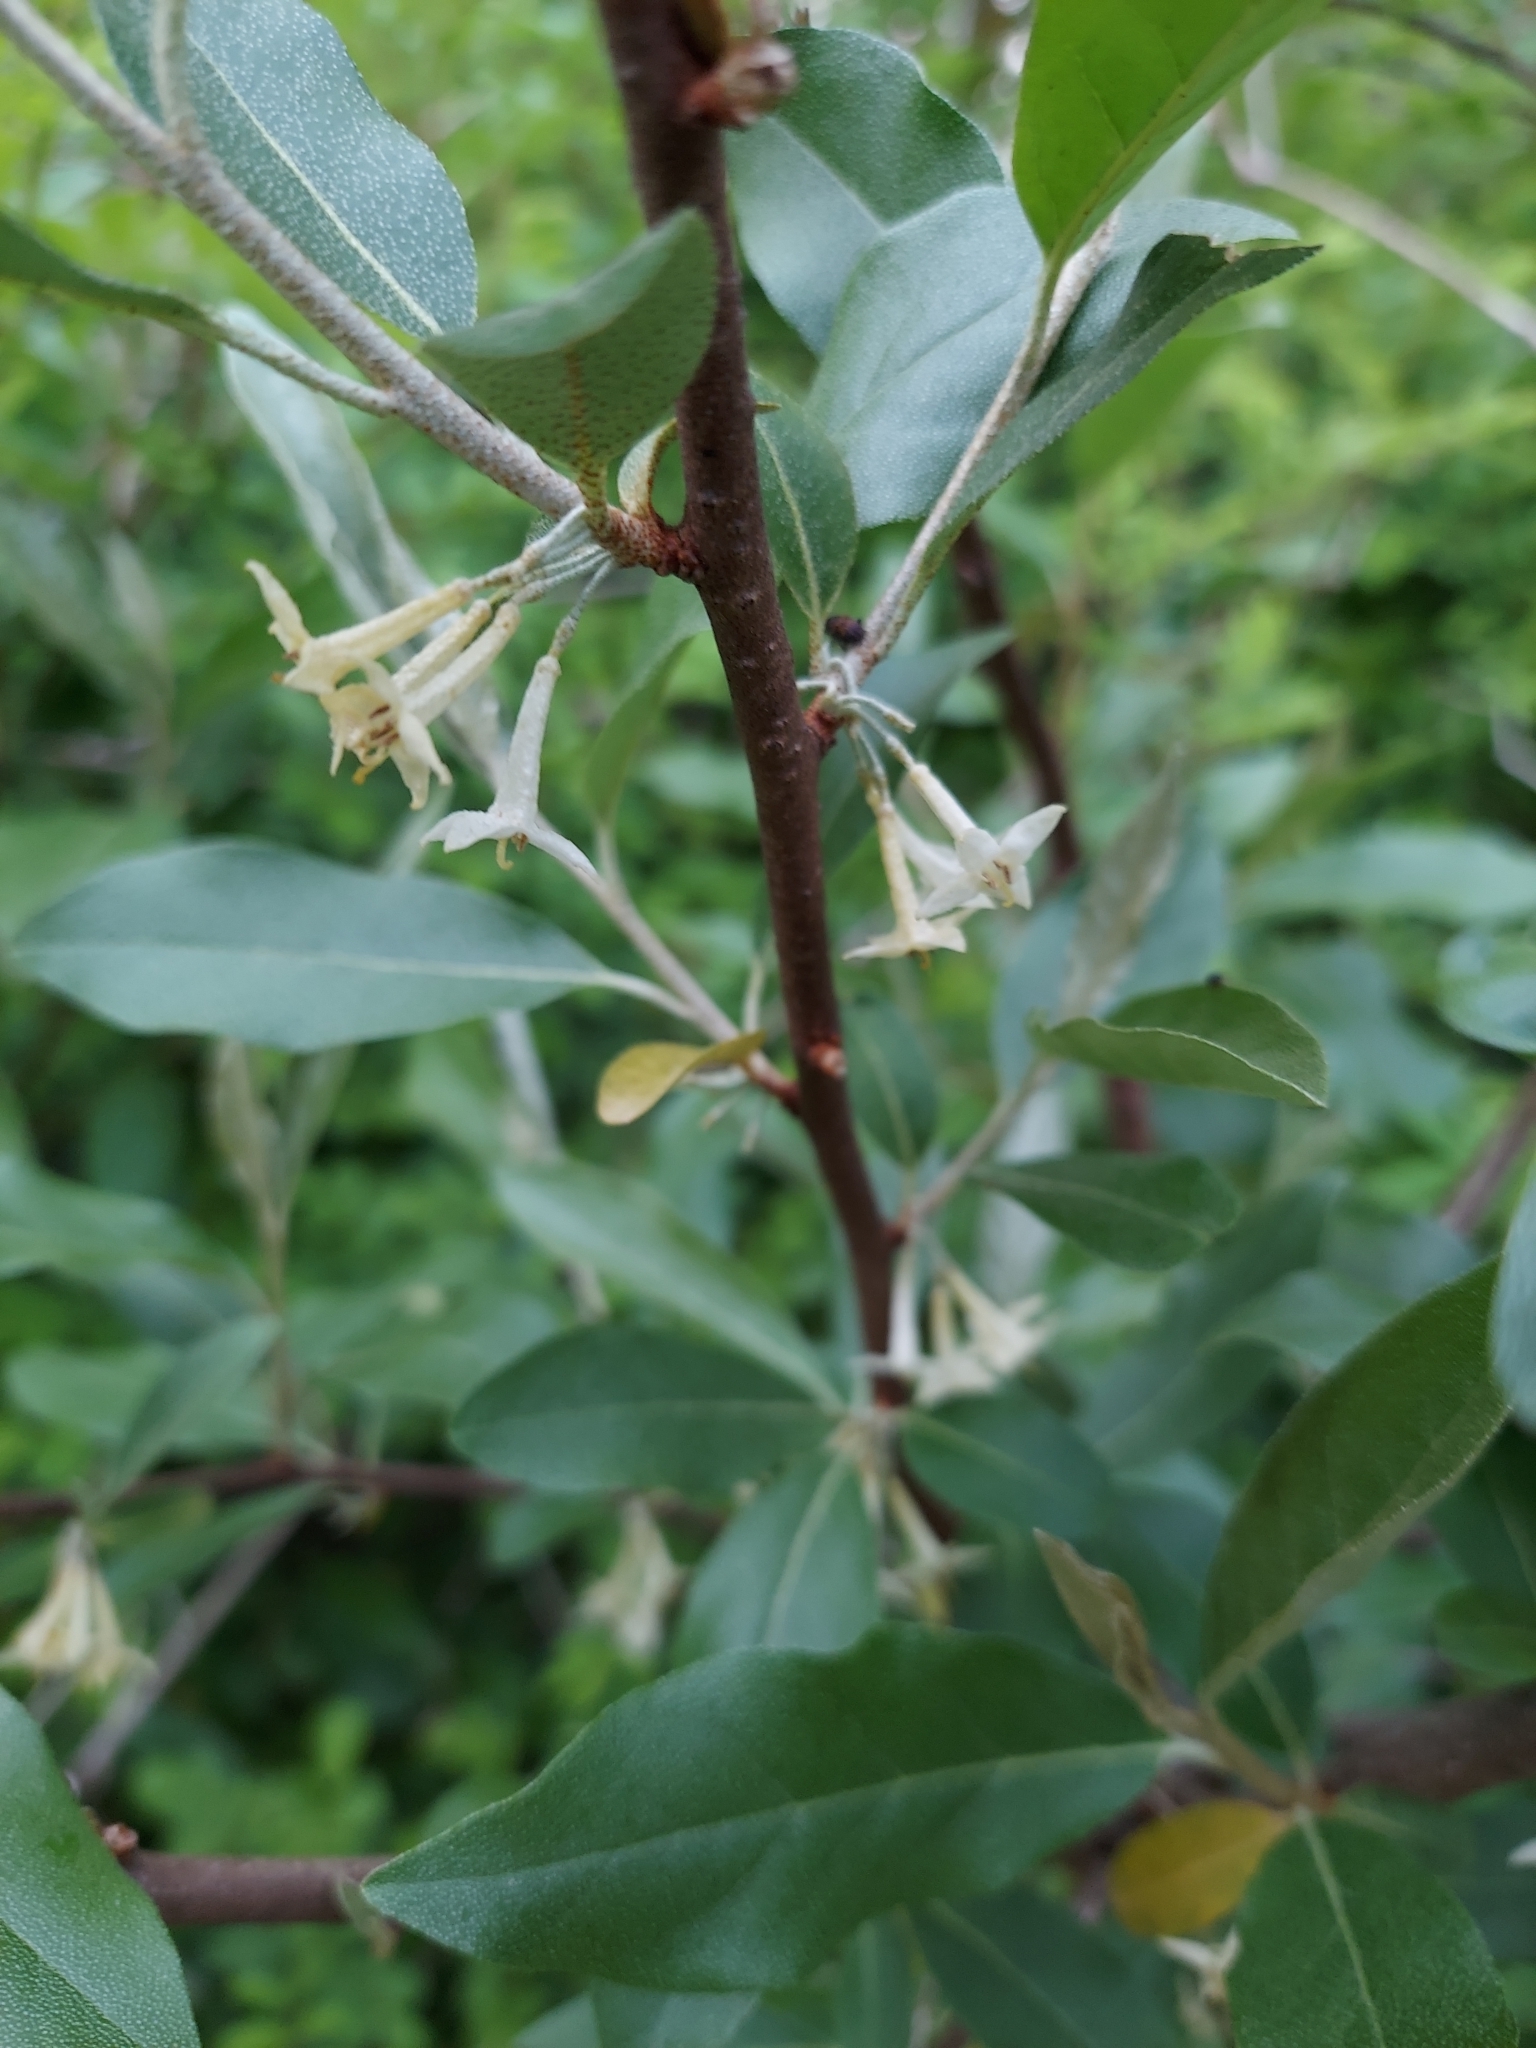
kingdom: Plantae
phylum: Tracheophyta
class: Magnoliopsida
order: Rosales
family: Elaeagnaceae
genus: Elaeagnus
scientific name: Elaeagnus umbellata
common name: Autumn olive
